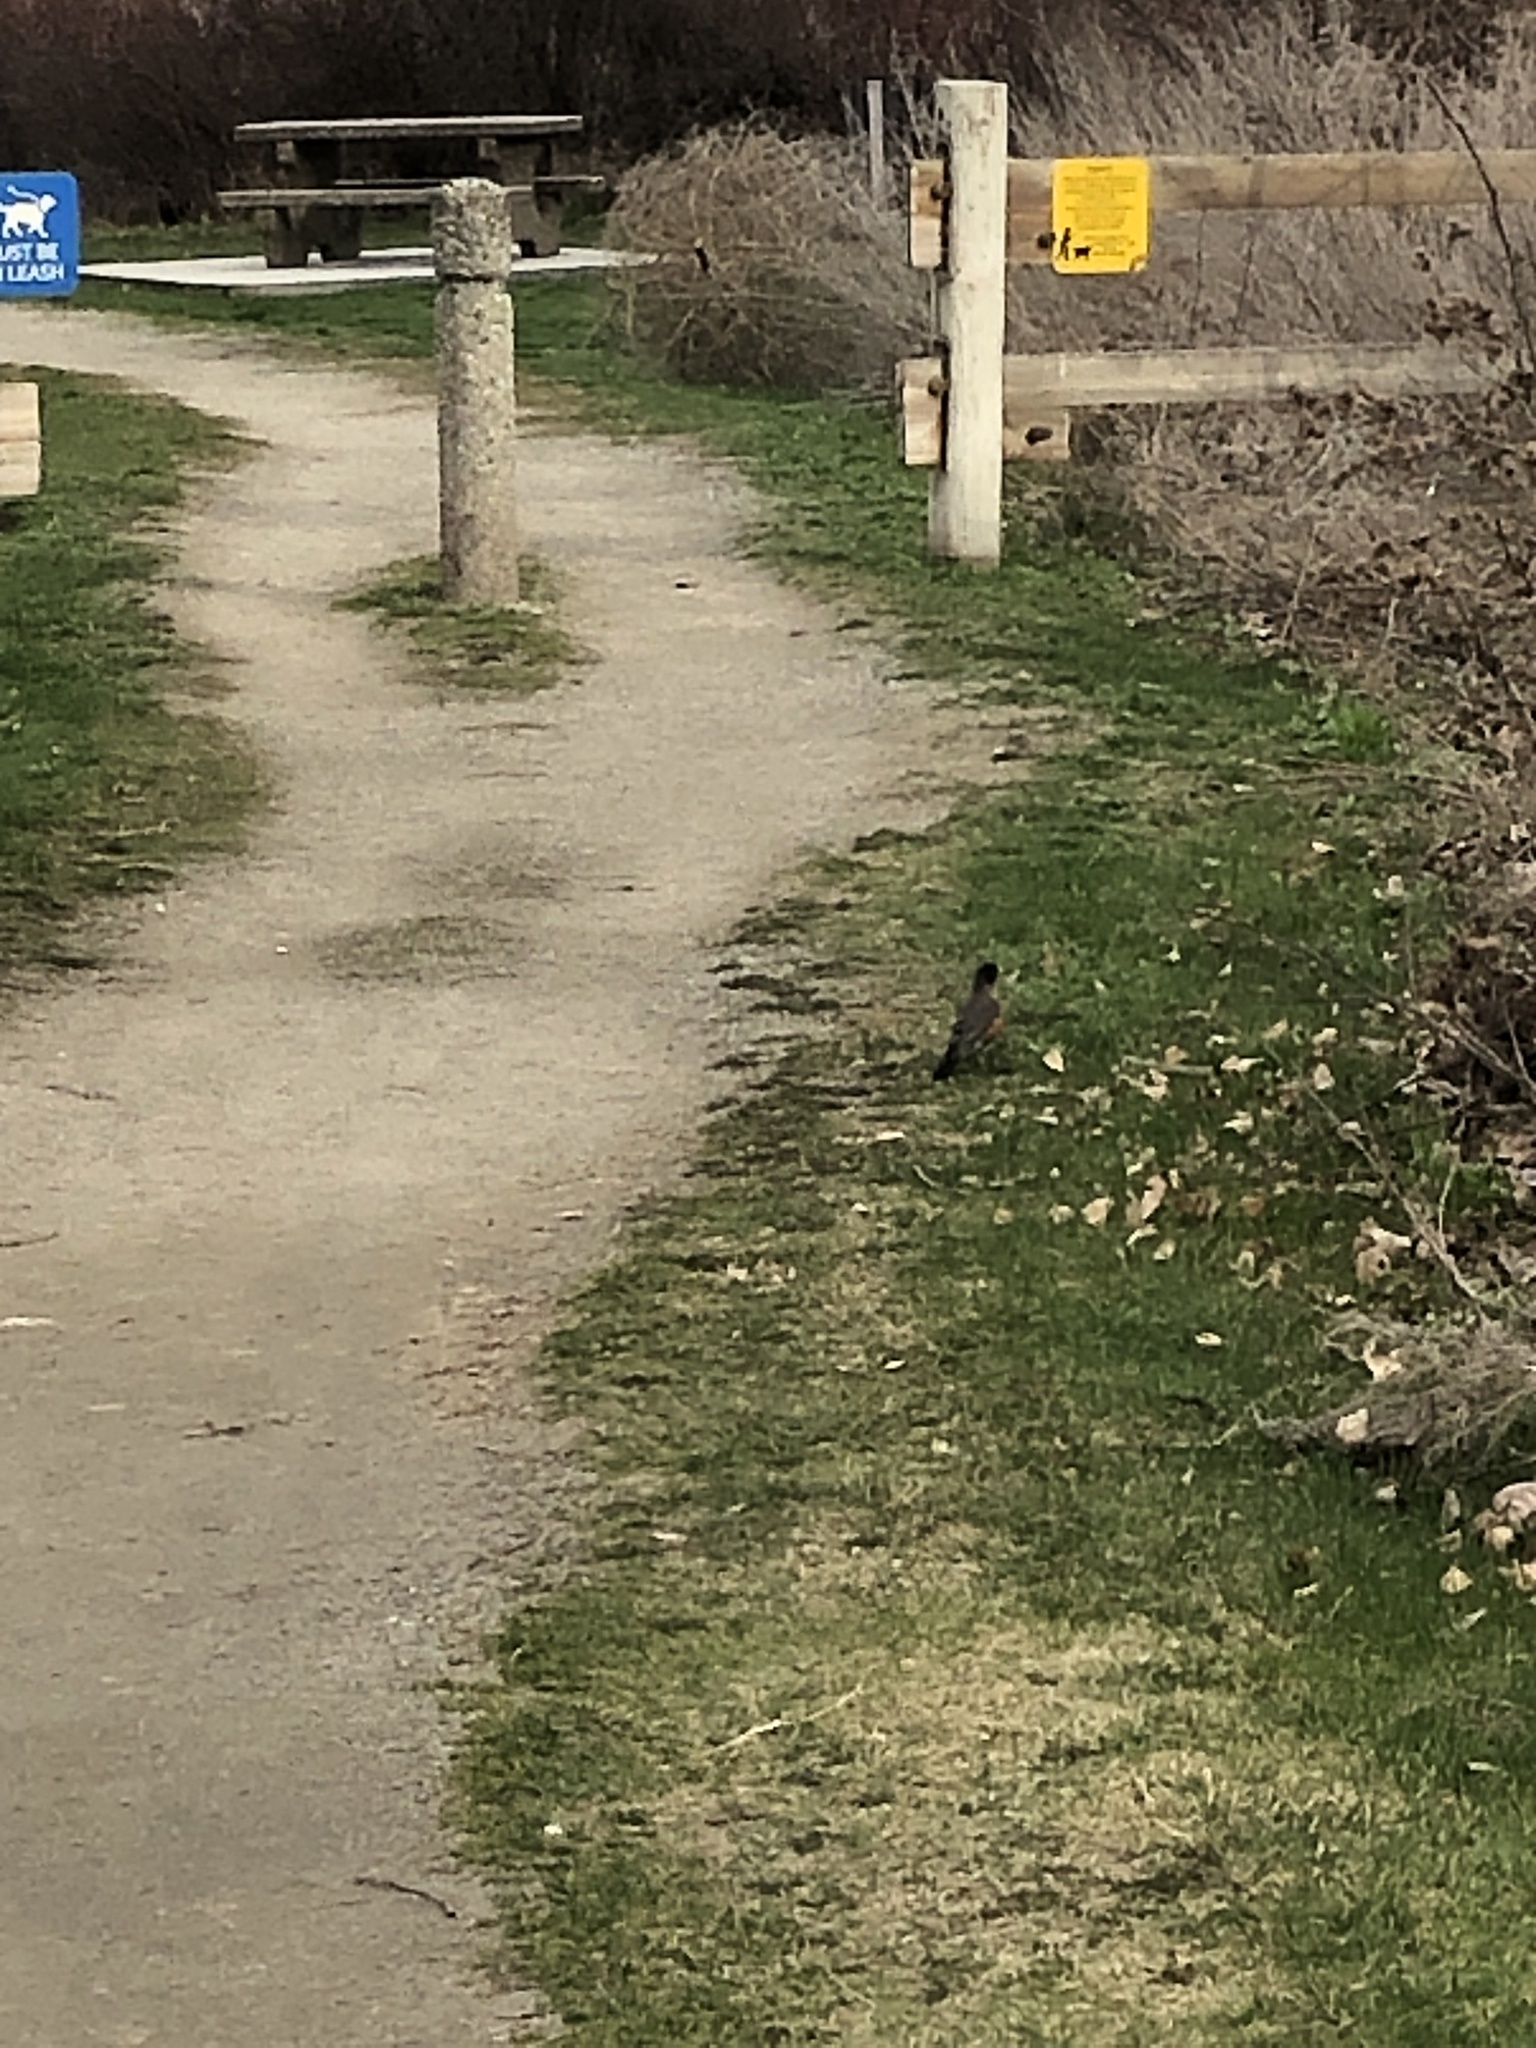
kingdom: Animalia
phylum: Chordata
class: Aves
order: Passeriformes
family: Turdidae
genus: Turdus
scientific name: Turdus migratorius
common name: American robin
